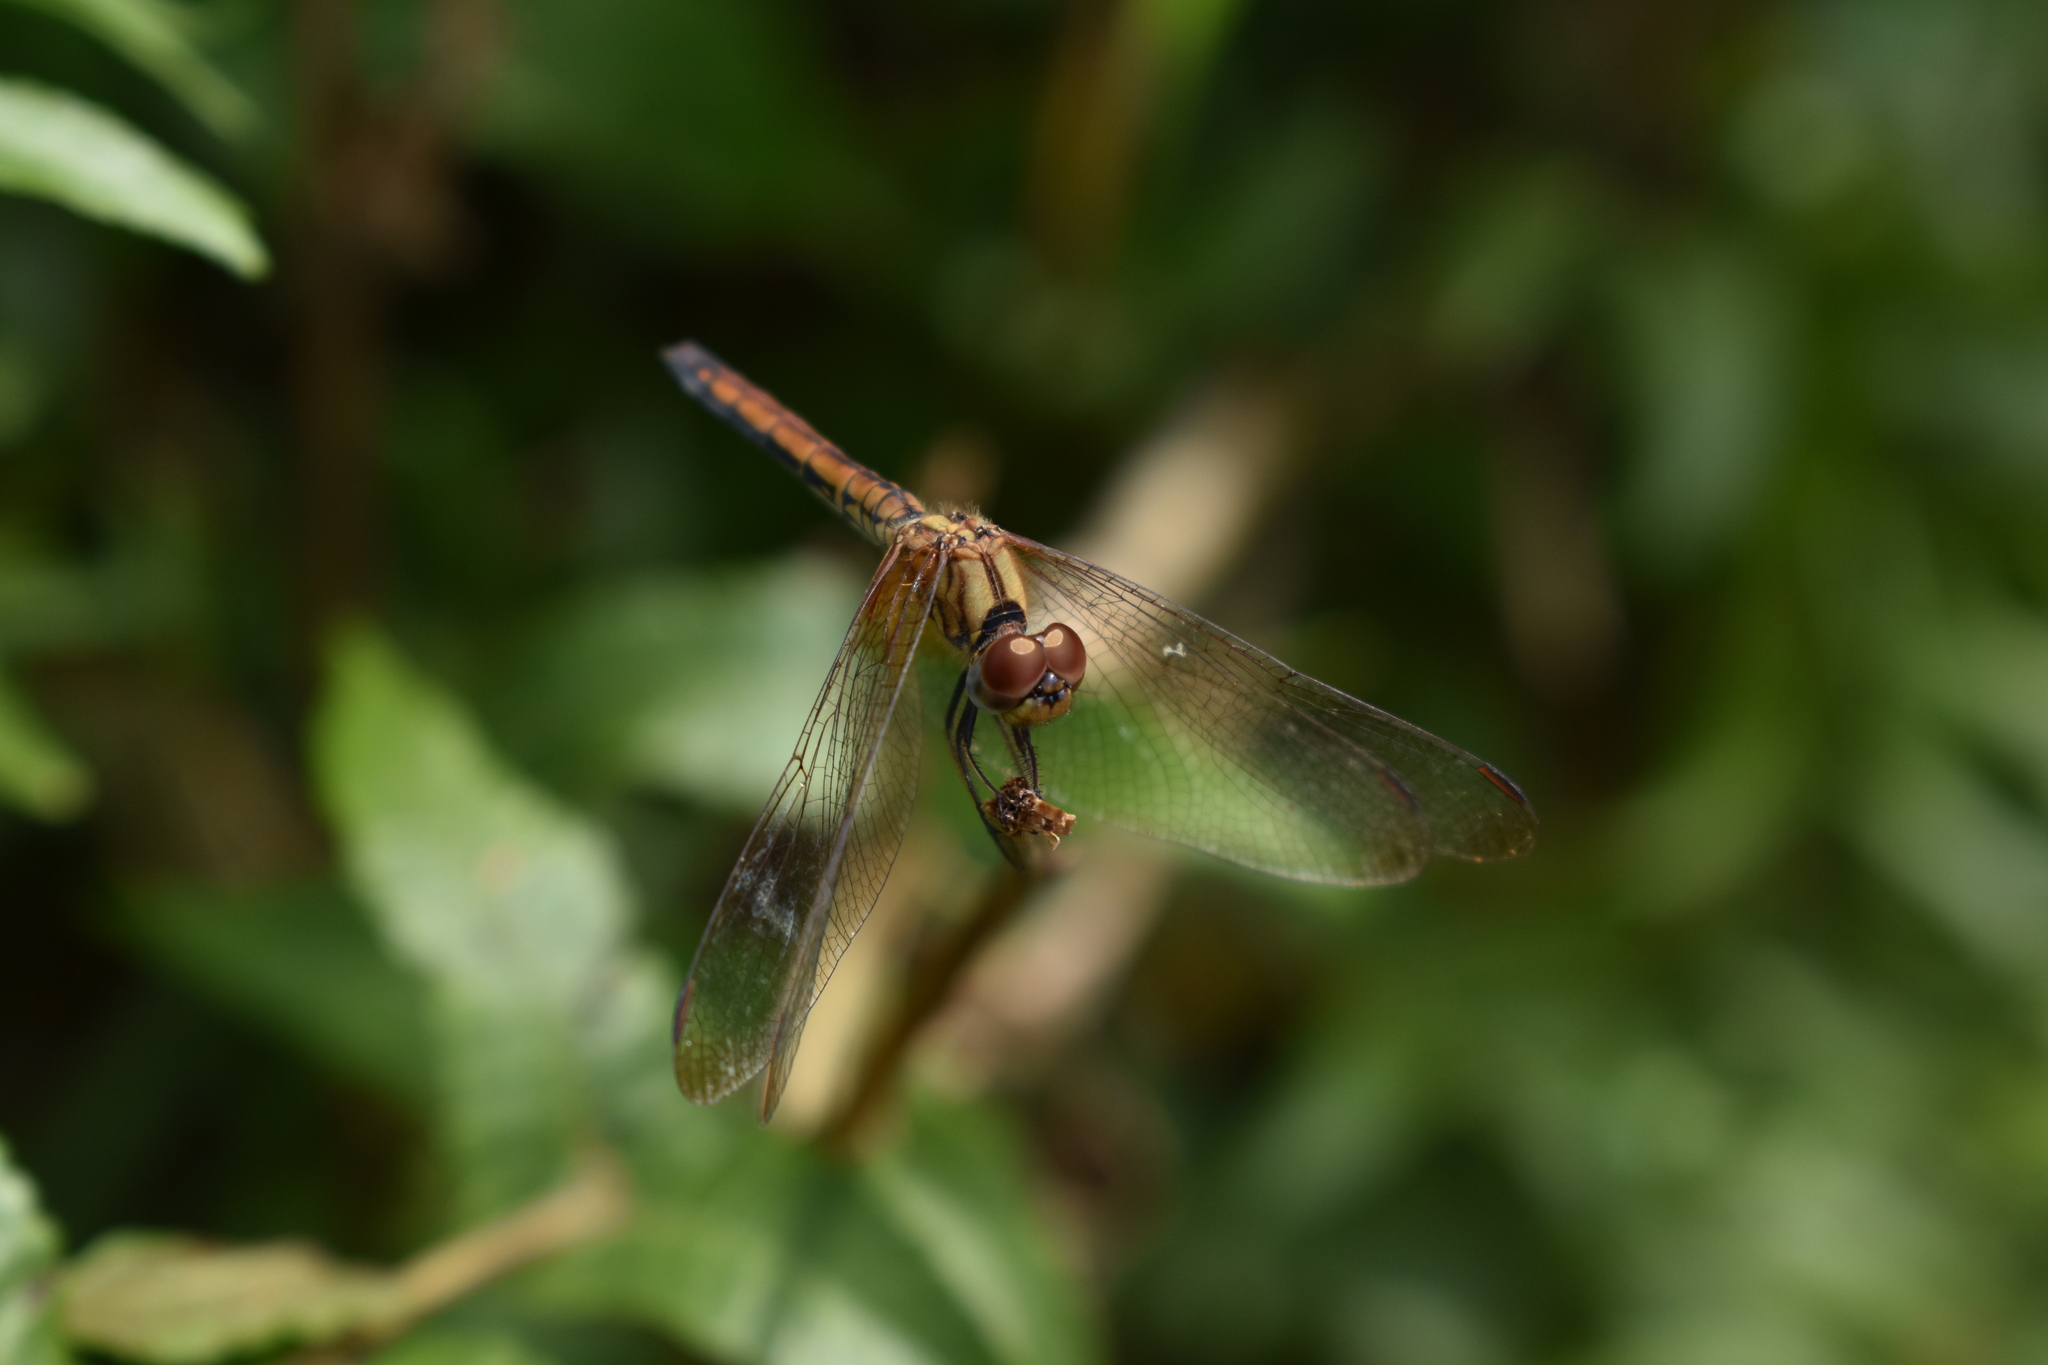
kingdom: Animalia
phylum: Arthropoda
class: Insecta
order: Odonata
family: Libellulidae
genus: Trithemis
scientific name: Trithemis aurora
